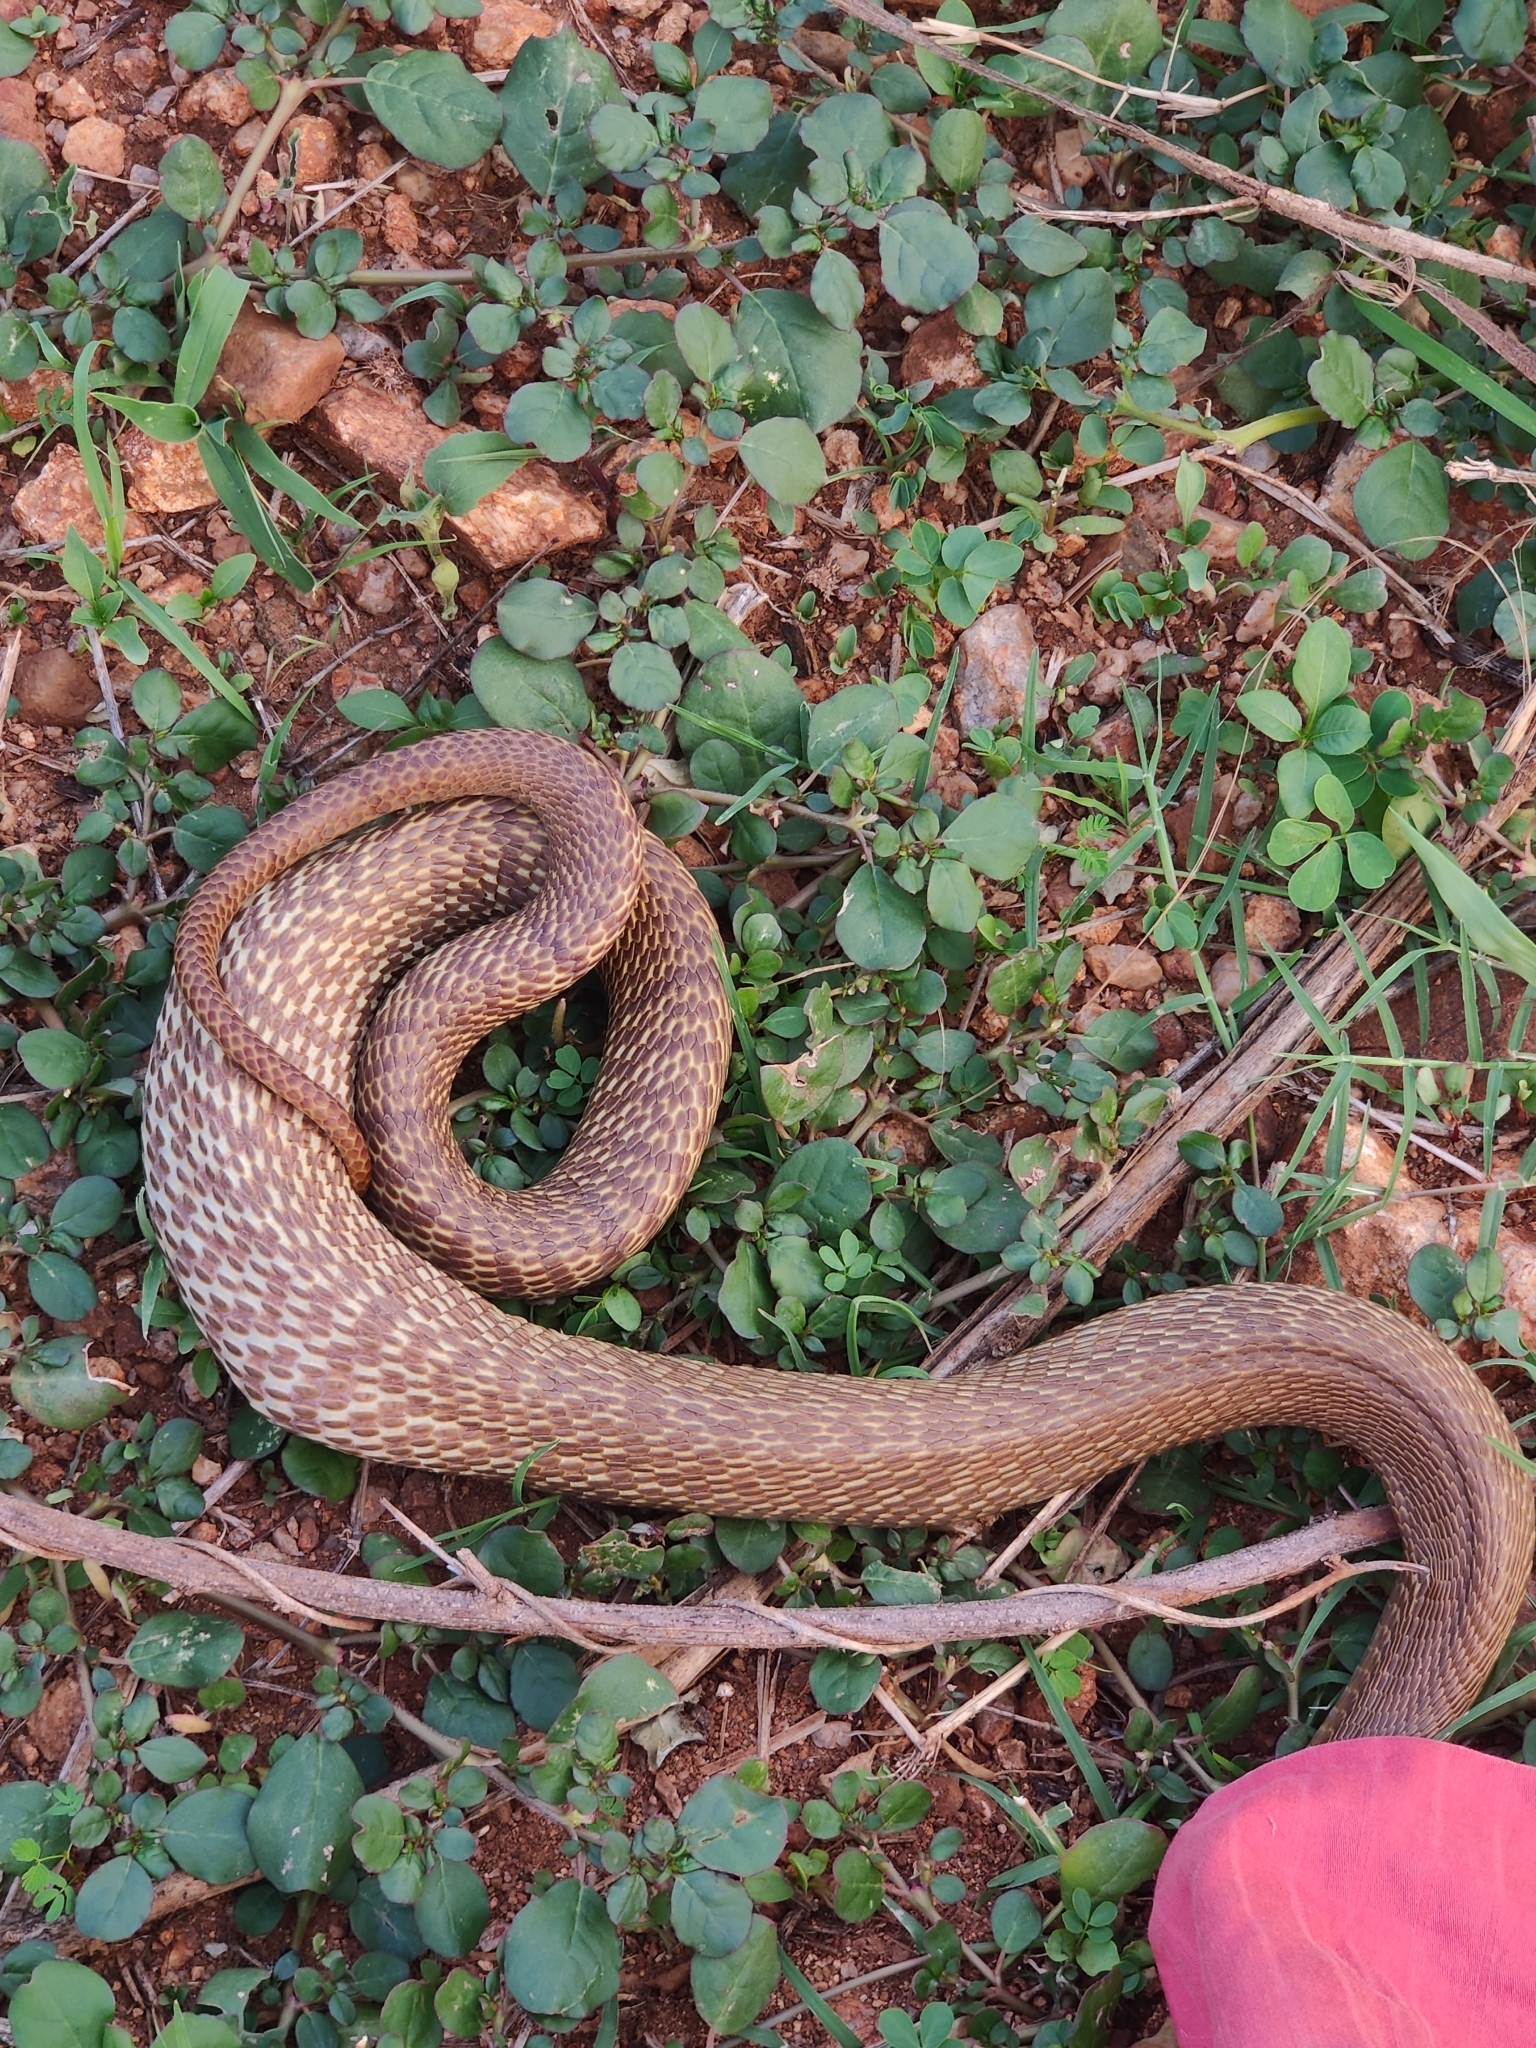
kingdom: Animalia
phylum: Chordata
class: Squamata
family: Elapidae
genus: Naja
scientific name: Naja naja
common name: Indian cobra
